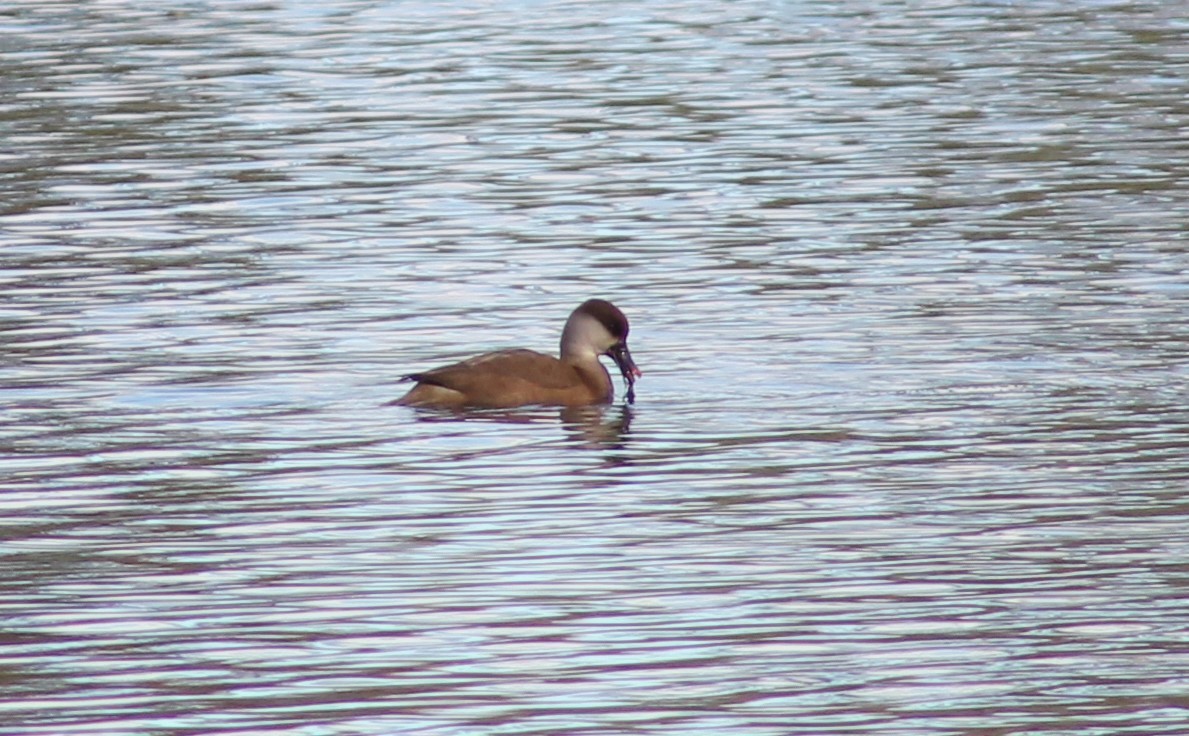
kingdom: Animalia
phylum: Chordata
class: Aves
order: Anseriformes
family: Anatidae
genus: Netta
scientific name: Netta rufina
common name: Red-crested pochard
